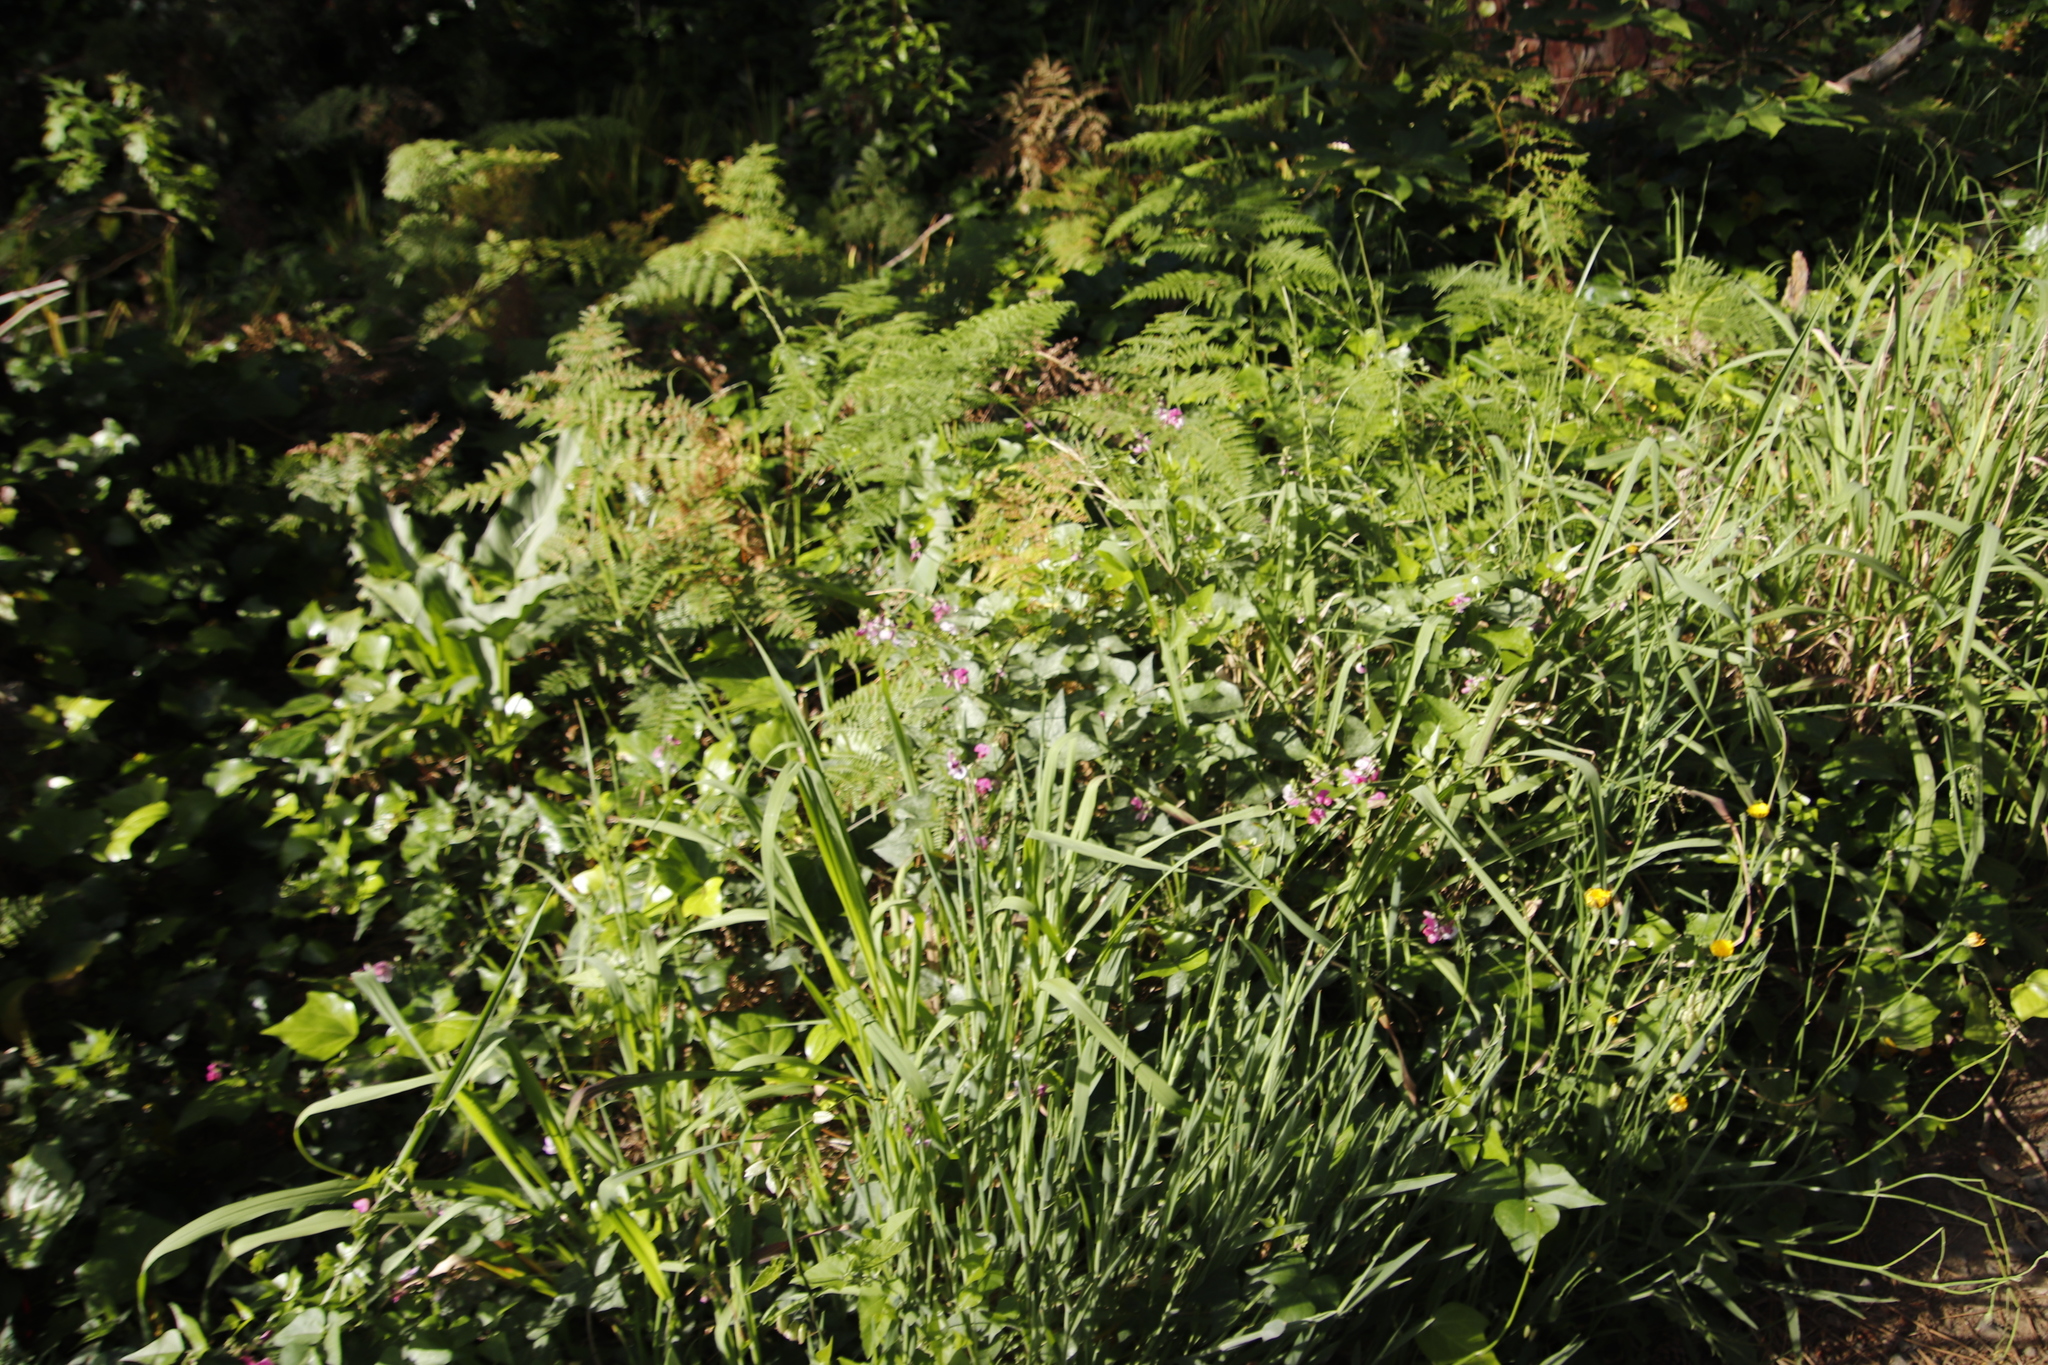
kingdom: Plantae
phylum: Tracheophyta
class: Magnoliopsida
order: Fabales
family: Fabaceae
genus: Dipogon
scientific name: Dipogon lignosus
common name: Okie bean
